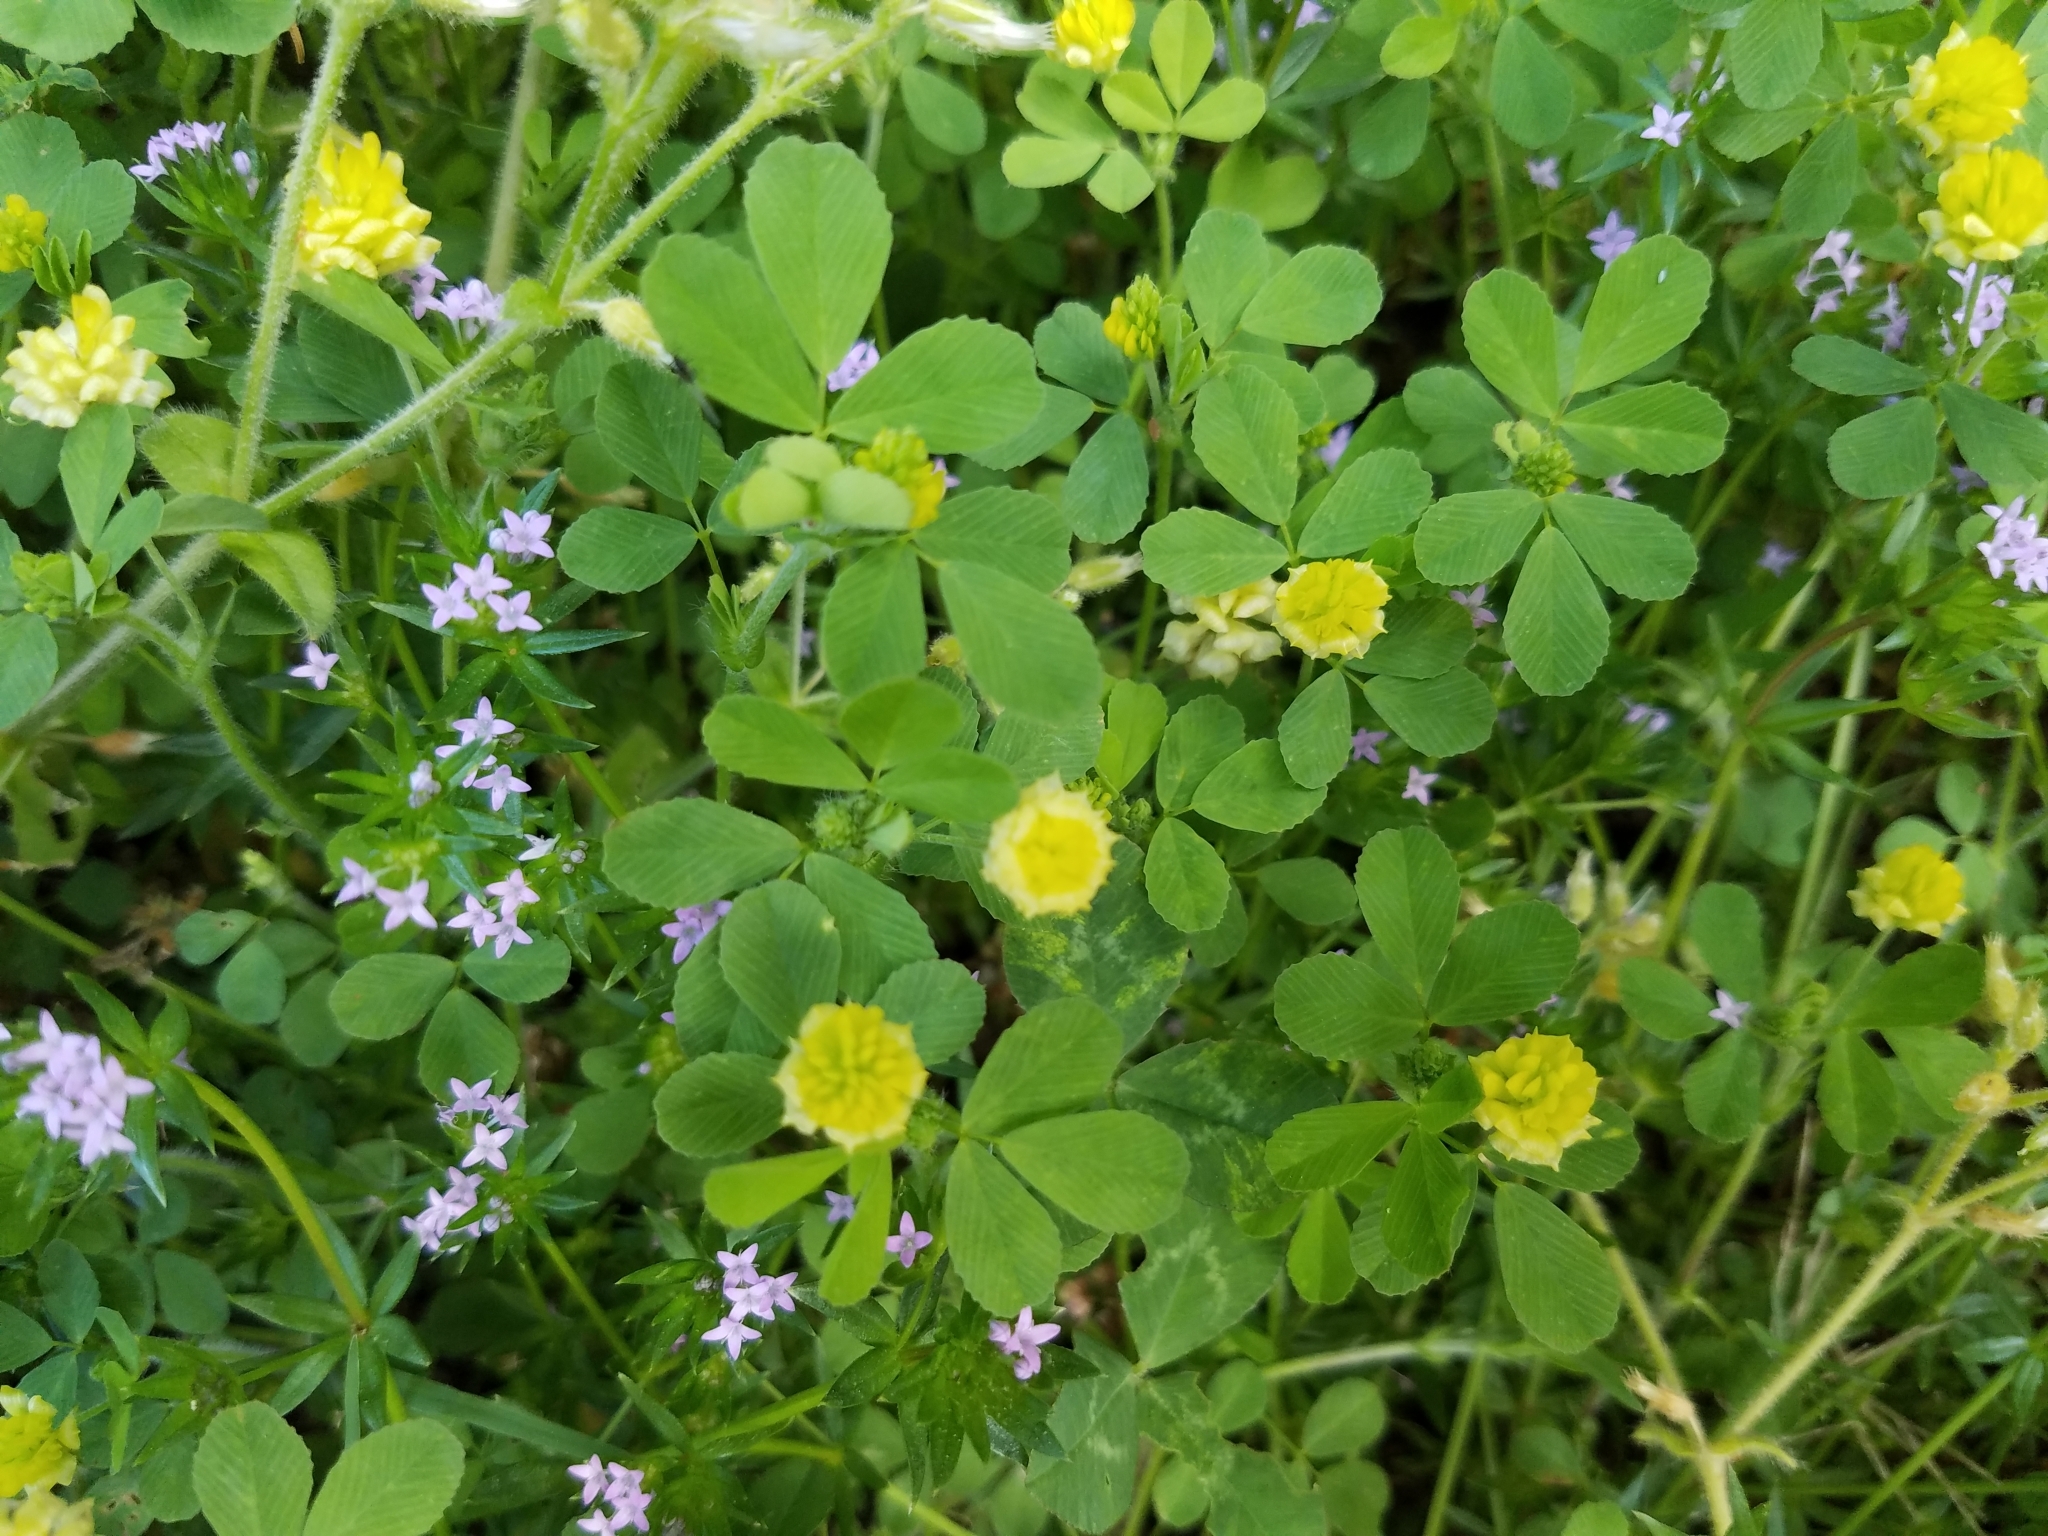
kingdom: Plantae
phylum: Tracheophyta
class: Magnoliopsida
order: Fabales
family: Fabaceae
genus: Trifolium
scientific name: Trifolium campestre
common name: Field clover
